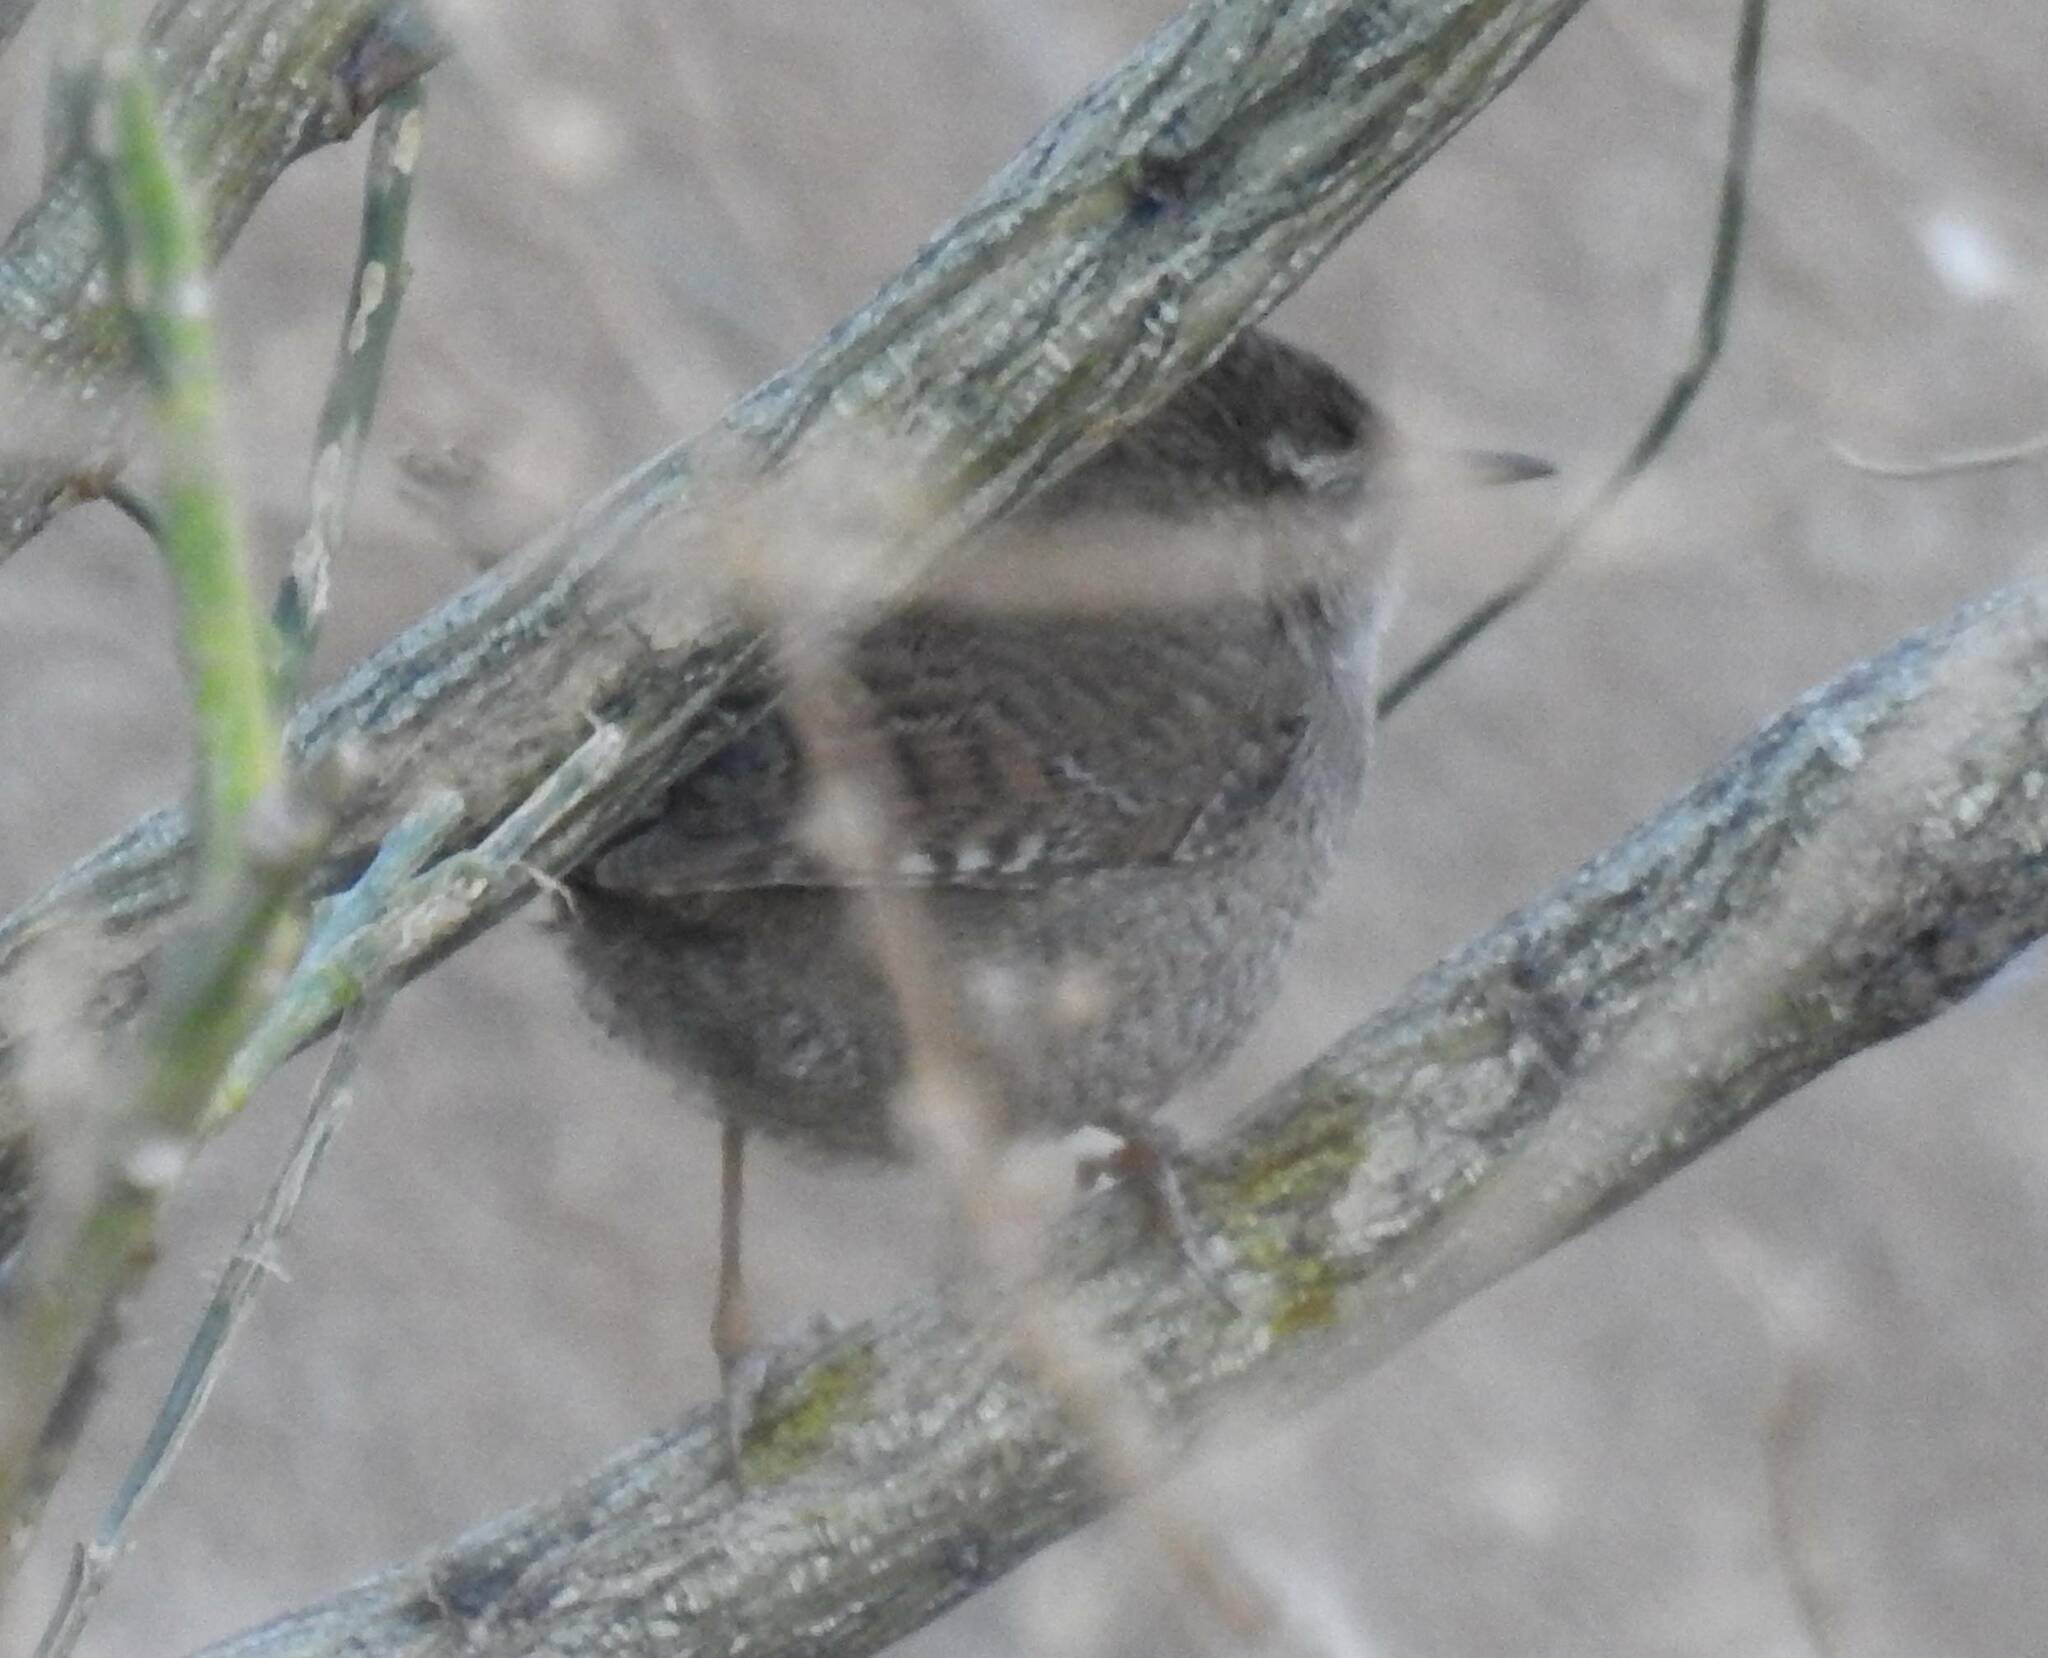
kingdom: Animalia
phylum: Chordata
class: Aves
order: Passeriformes
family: Troglodytidae
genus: Troglodytes
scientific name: Troglodytes troglodytes
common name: Eurasian wren
